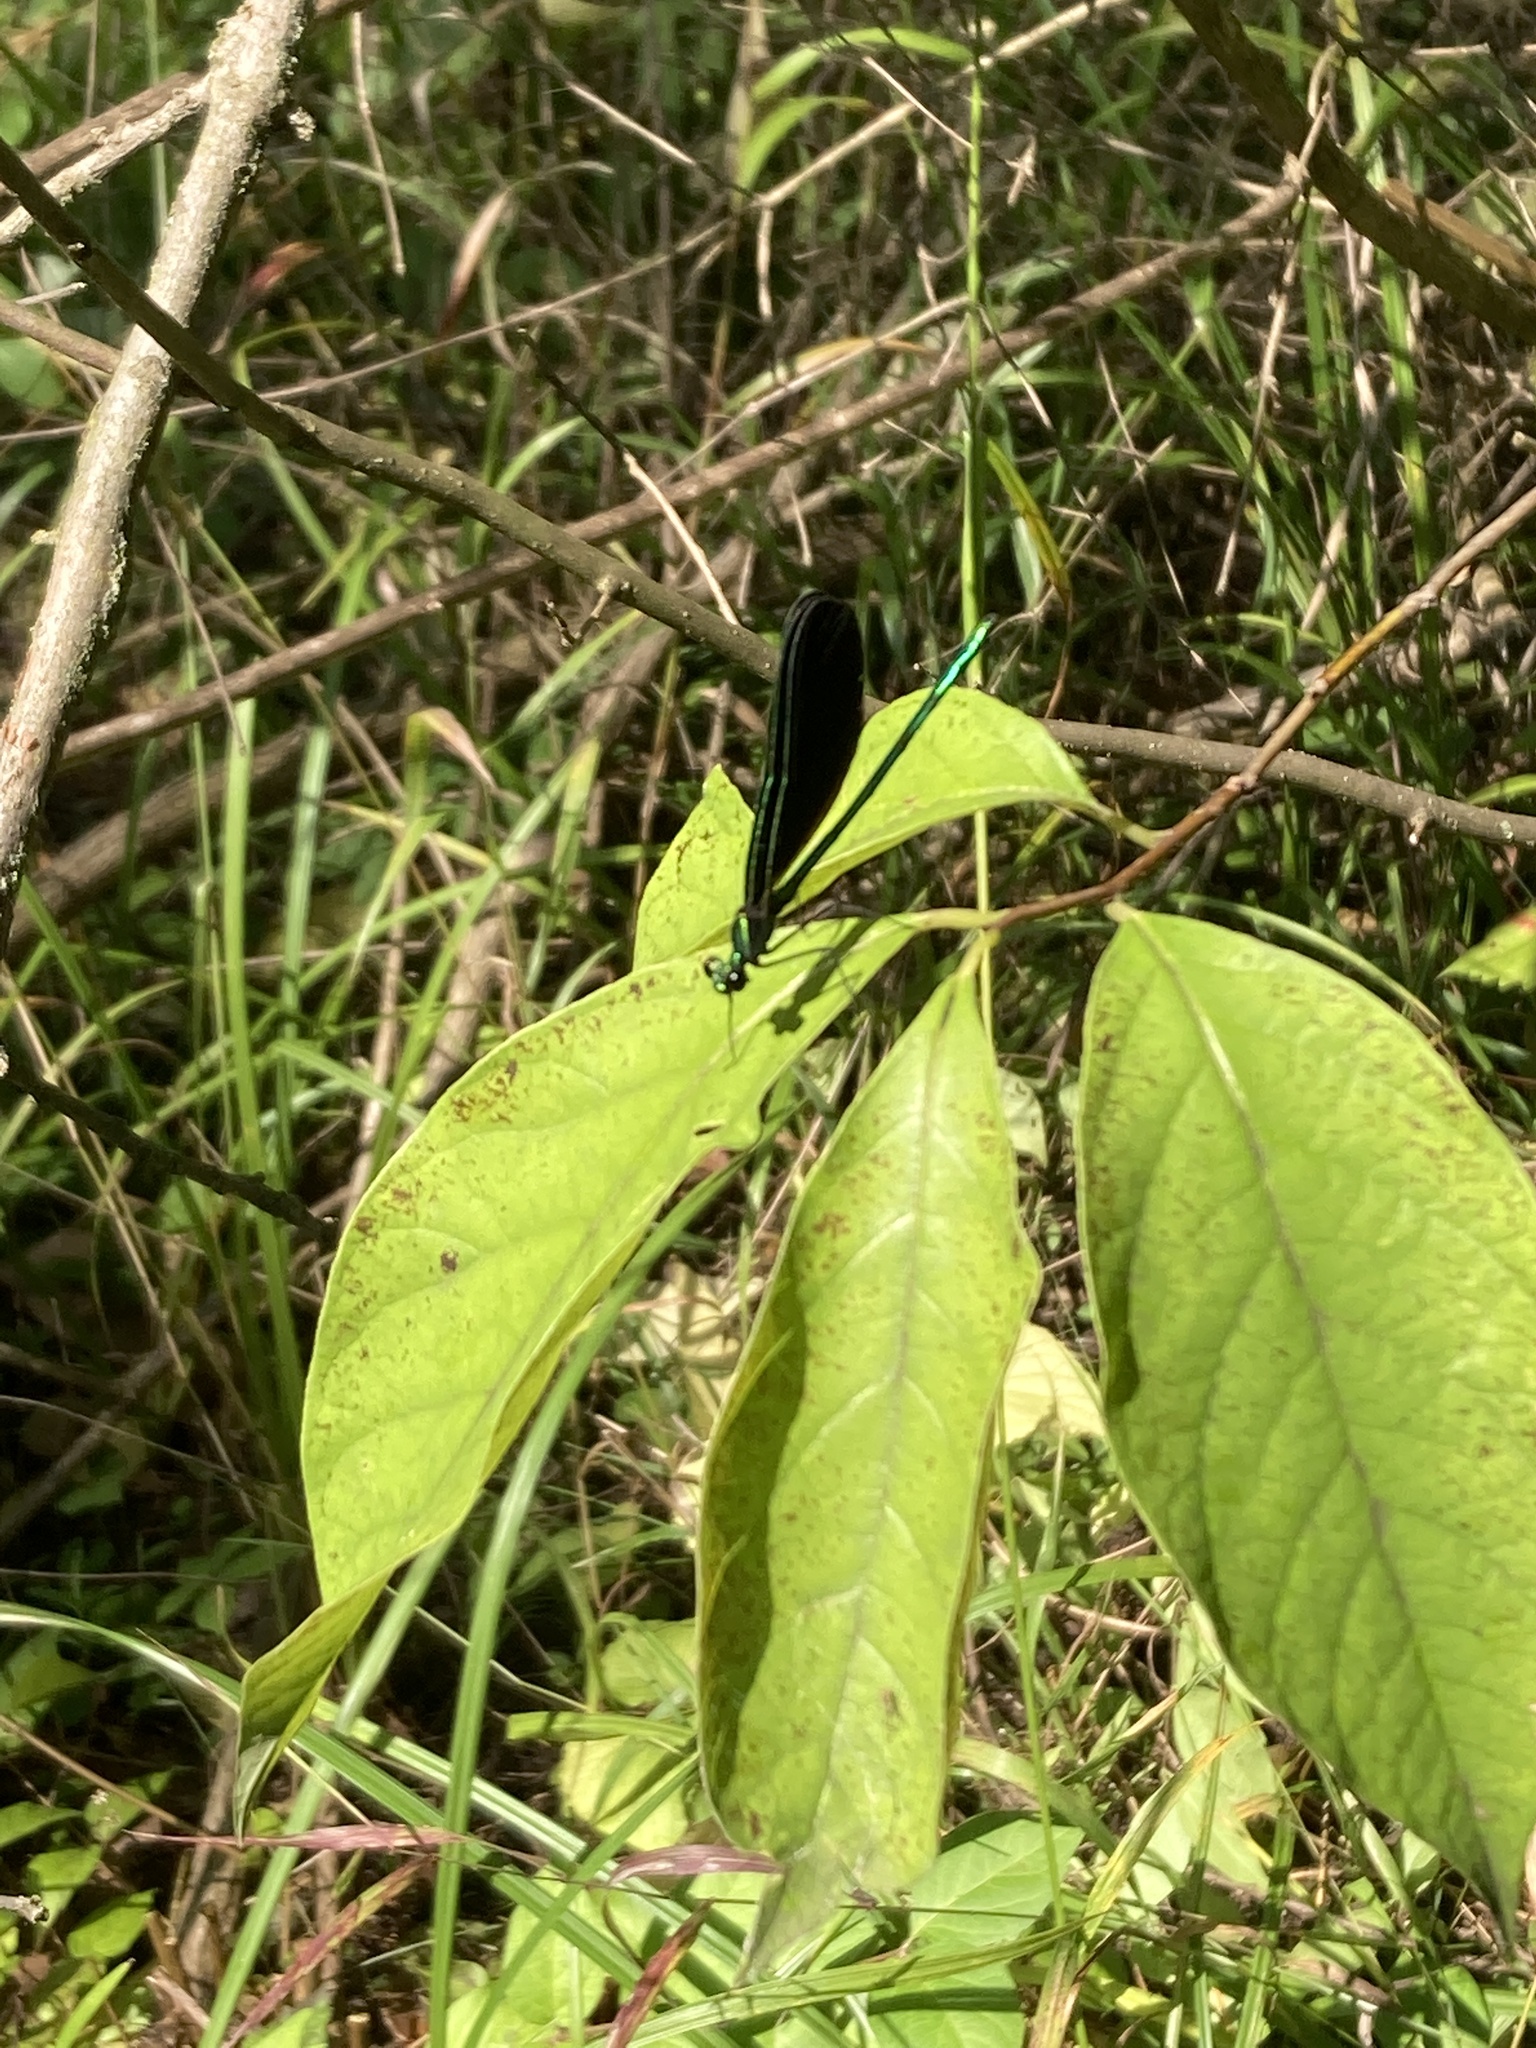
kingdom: Animalia
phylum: Arthropoda
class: Insecta
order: Odonata
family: Calopterygidae
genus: Calopteryx
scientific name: Calopteryx maculata
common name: Ebony jewelwing
